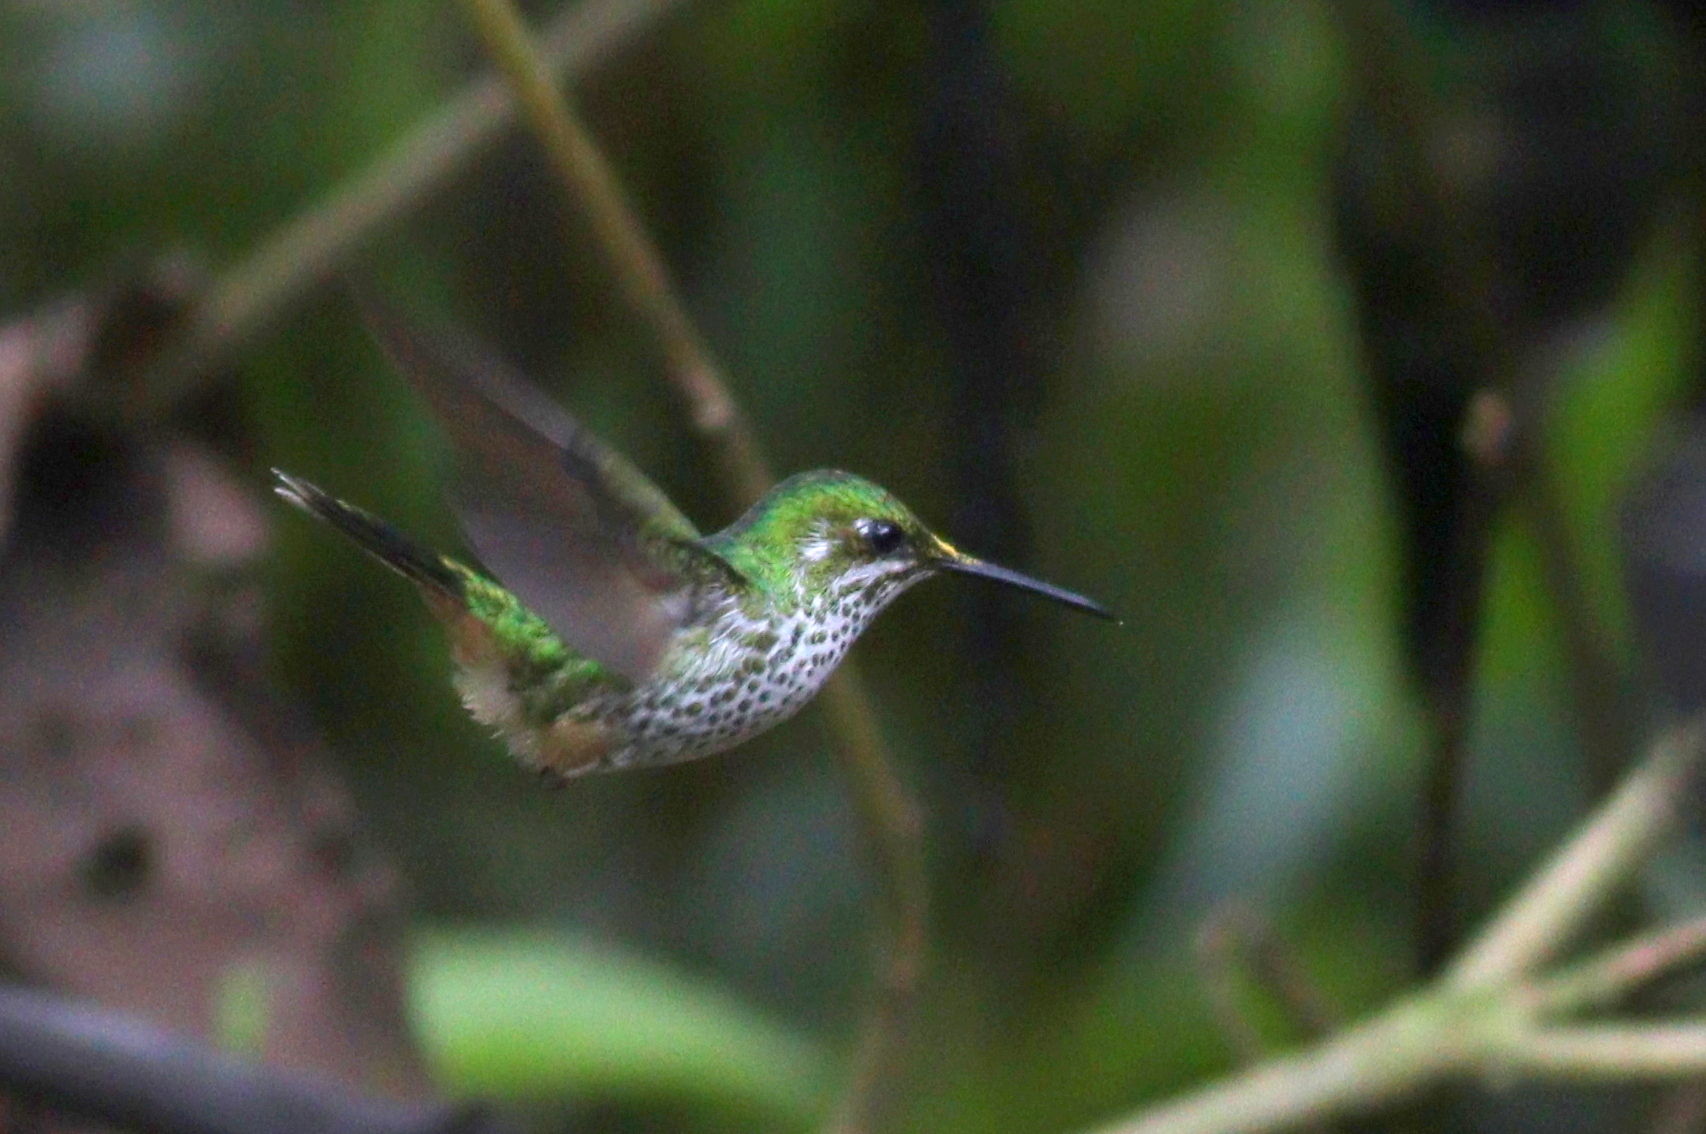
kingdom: Animalia
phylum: Chordata
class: Aves
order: Apodiformes
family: Trochilidae
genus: Ocreatus
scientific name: Ocreatus peruanus
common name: Peruvian racket-tail
